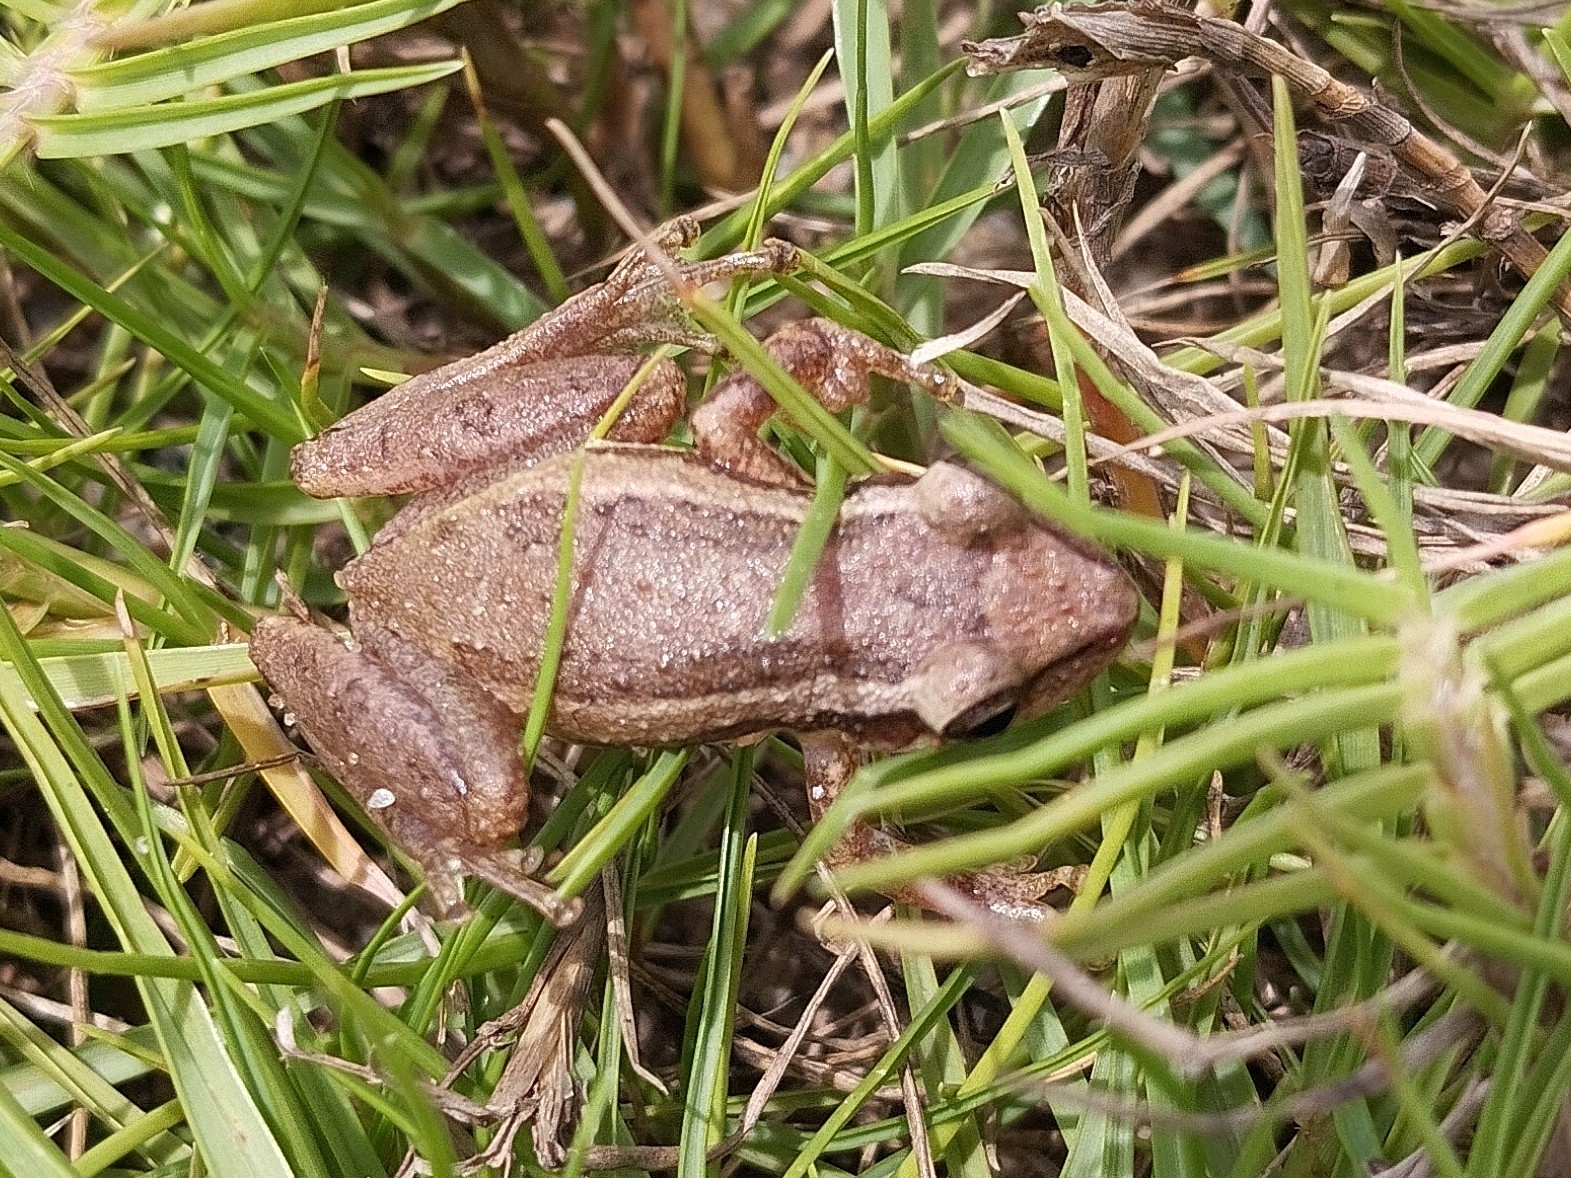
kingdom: Animalia
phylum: Chordata
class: Amphibia
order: Anura
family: Hylidae
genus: Scinax
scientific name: Scinax alter
